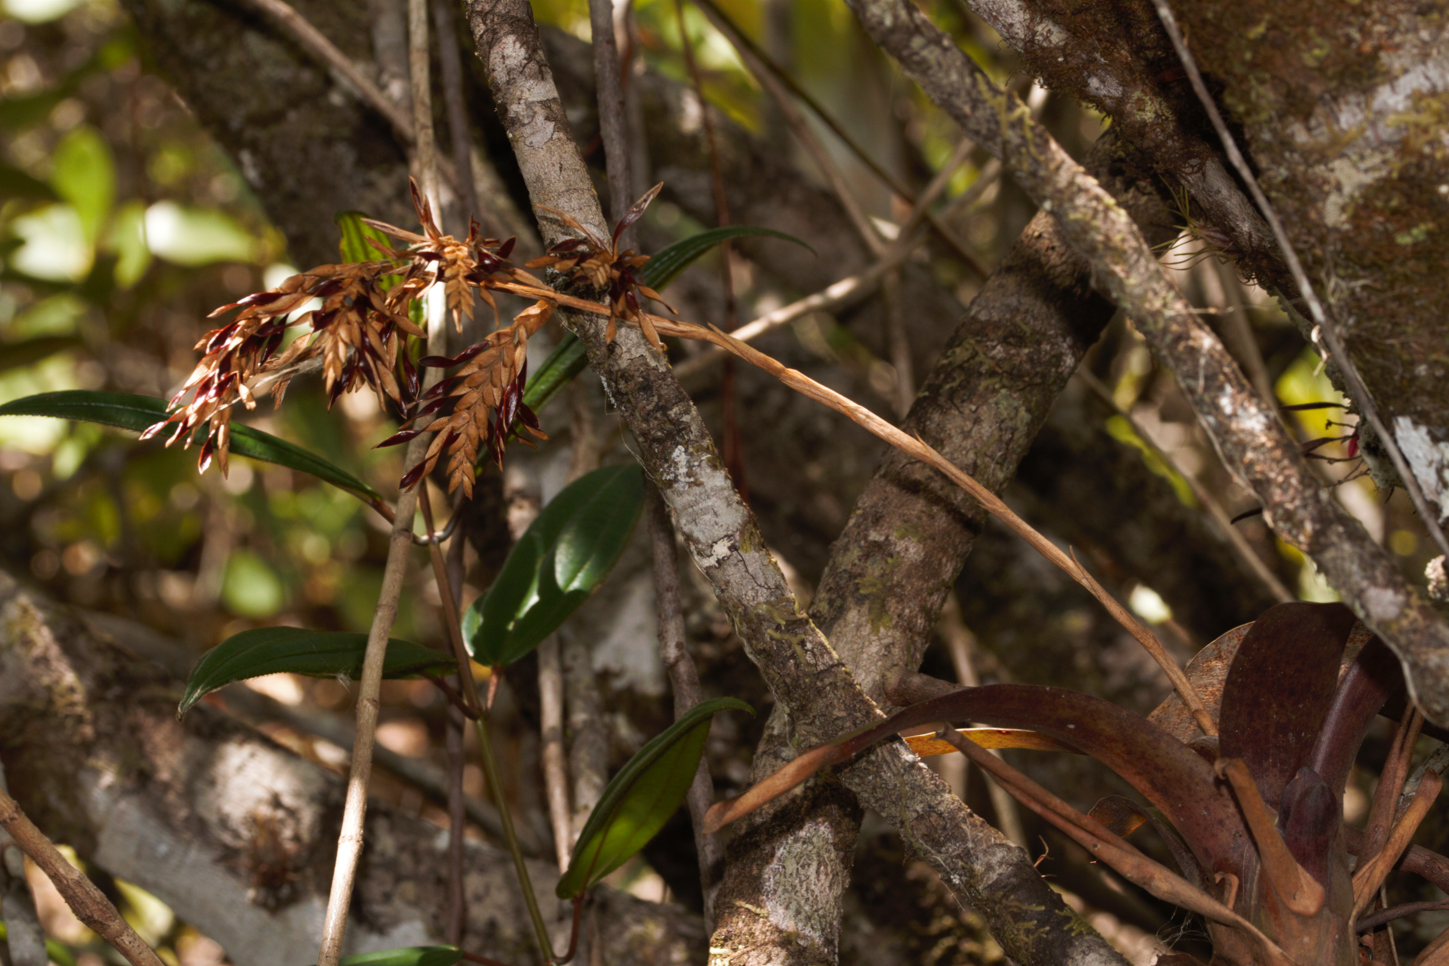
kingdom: Plantae
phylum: Tracheophyta
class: Liliopsida
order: Poales
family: Bromeliaceae
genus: Racinaea
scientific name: Racinaea spiculosa
